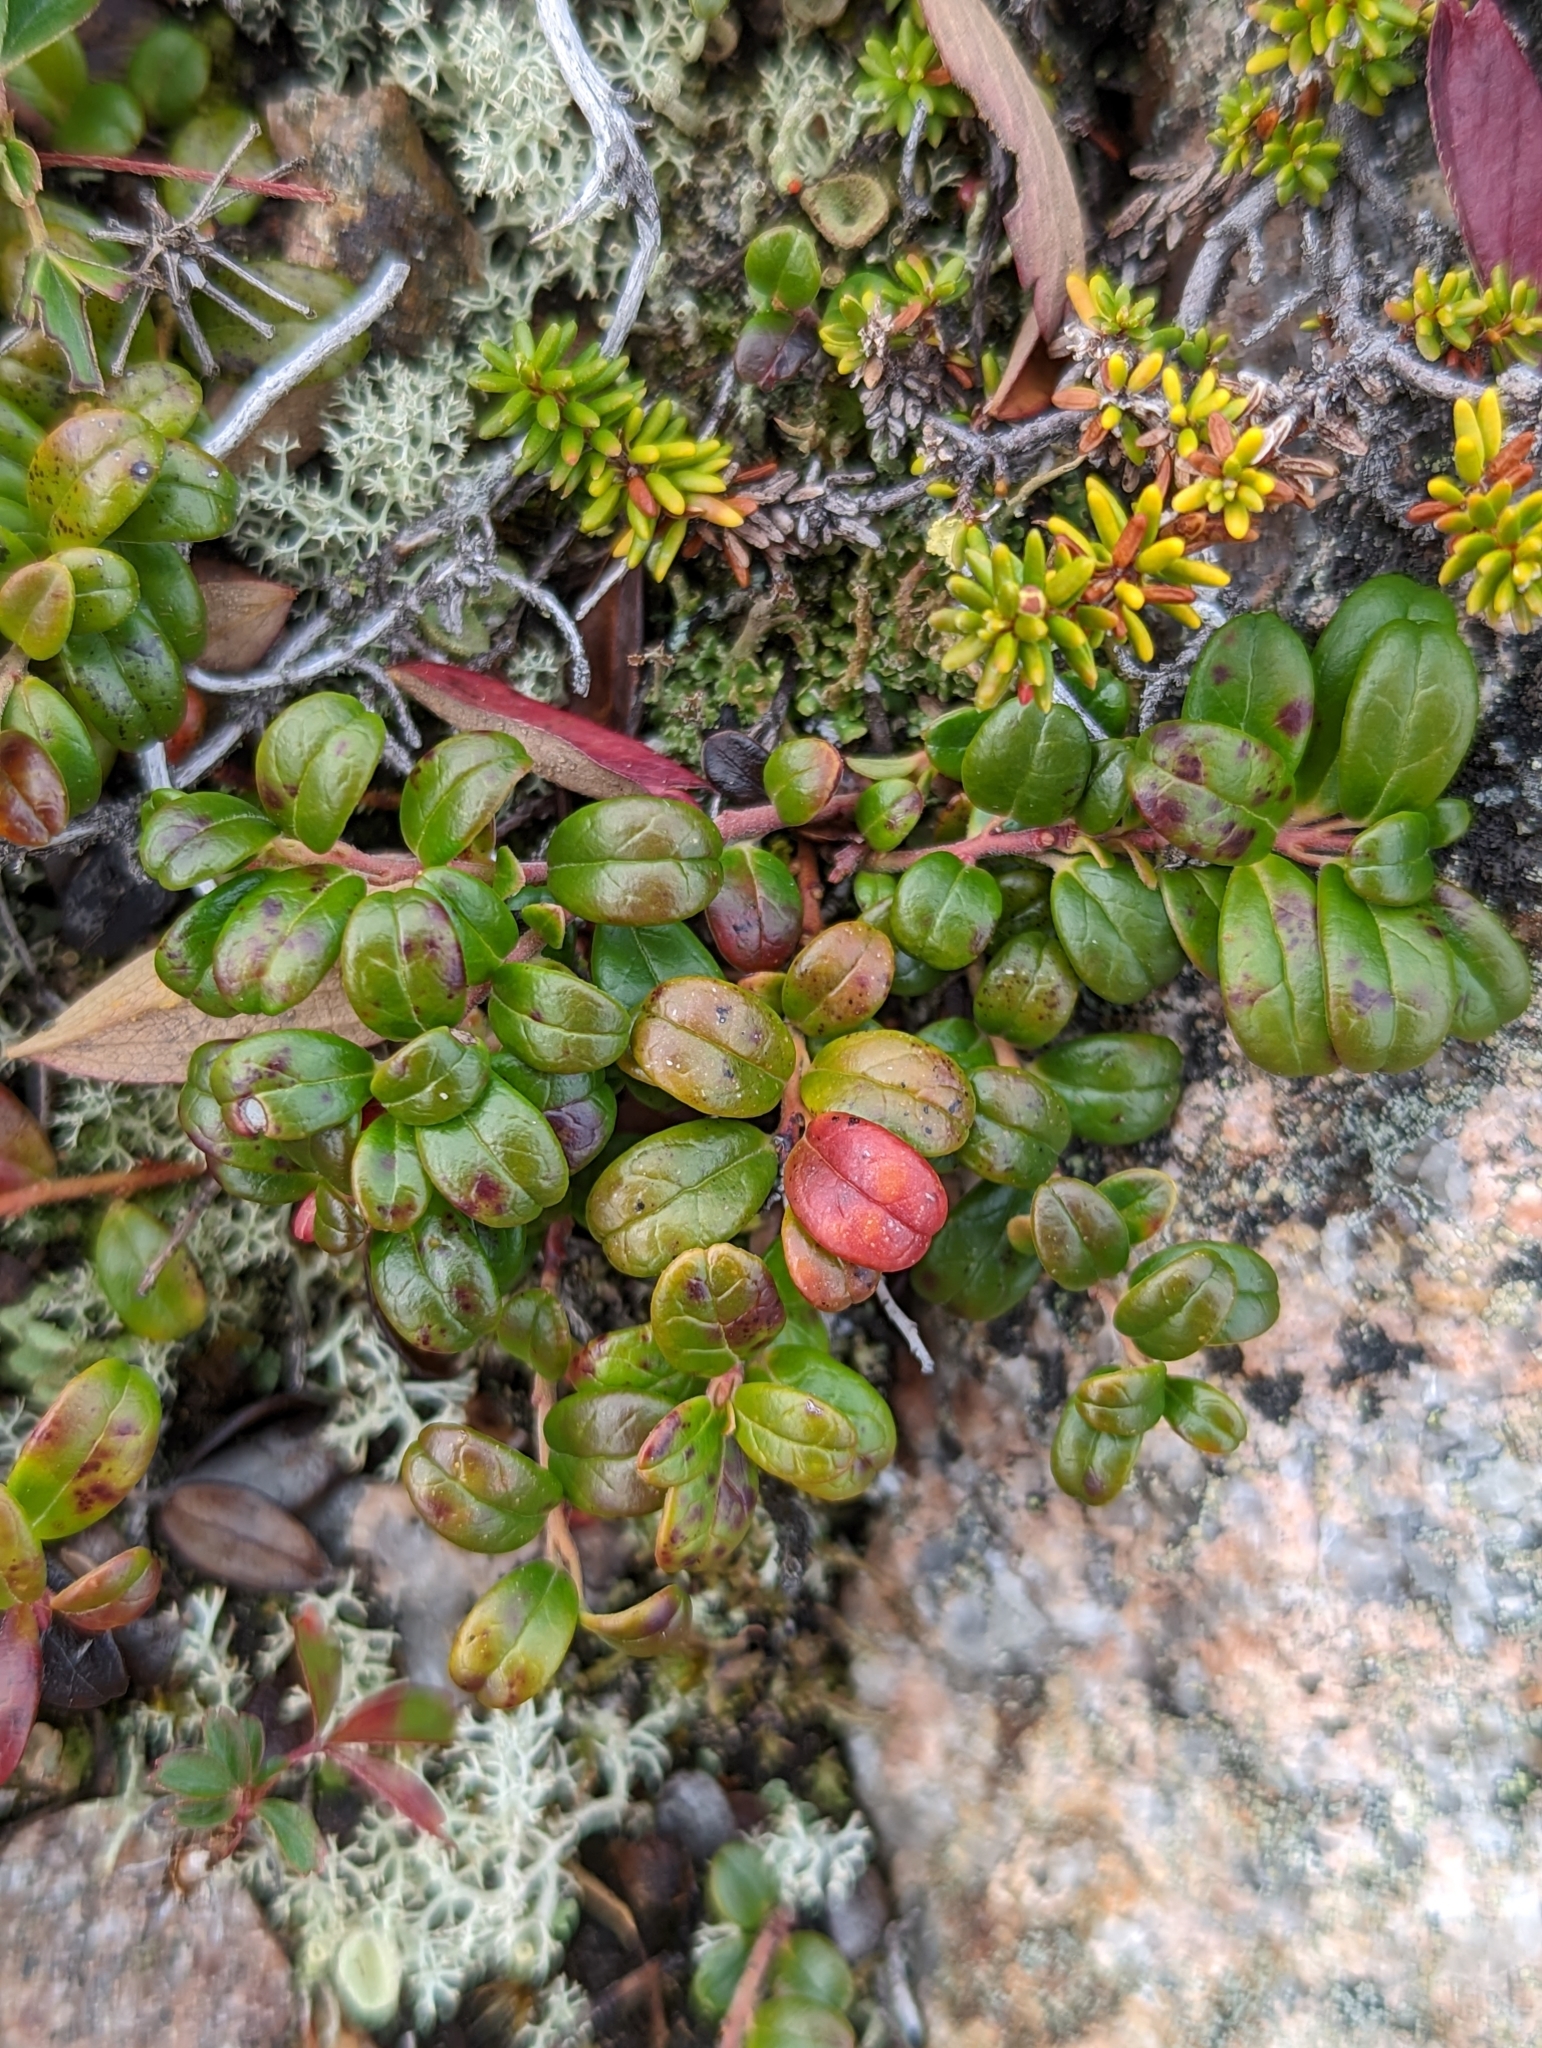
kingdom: Plantae
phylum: Tracheophyta
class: Magnoliopsida
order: Ericales
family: Ericaceae
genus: Vaccinium
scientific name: Vaccinium vitis-idaea
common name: Cowberry
